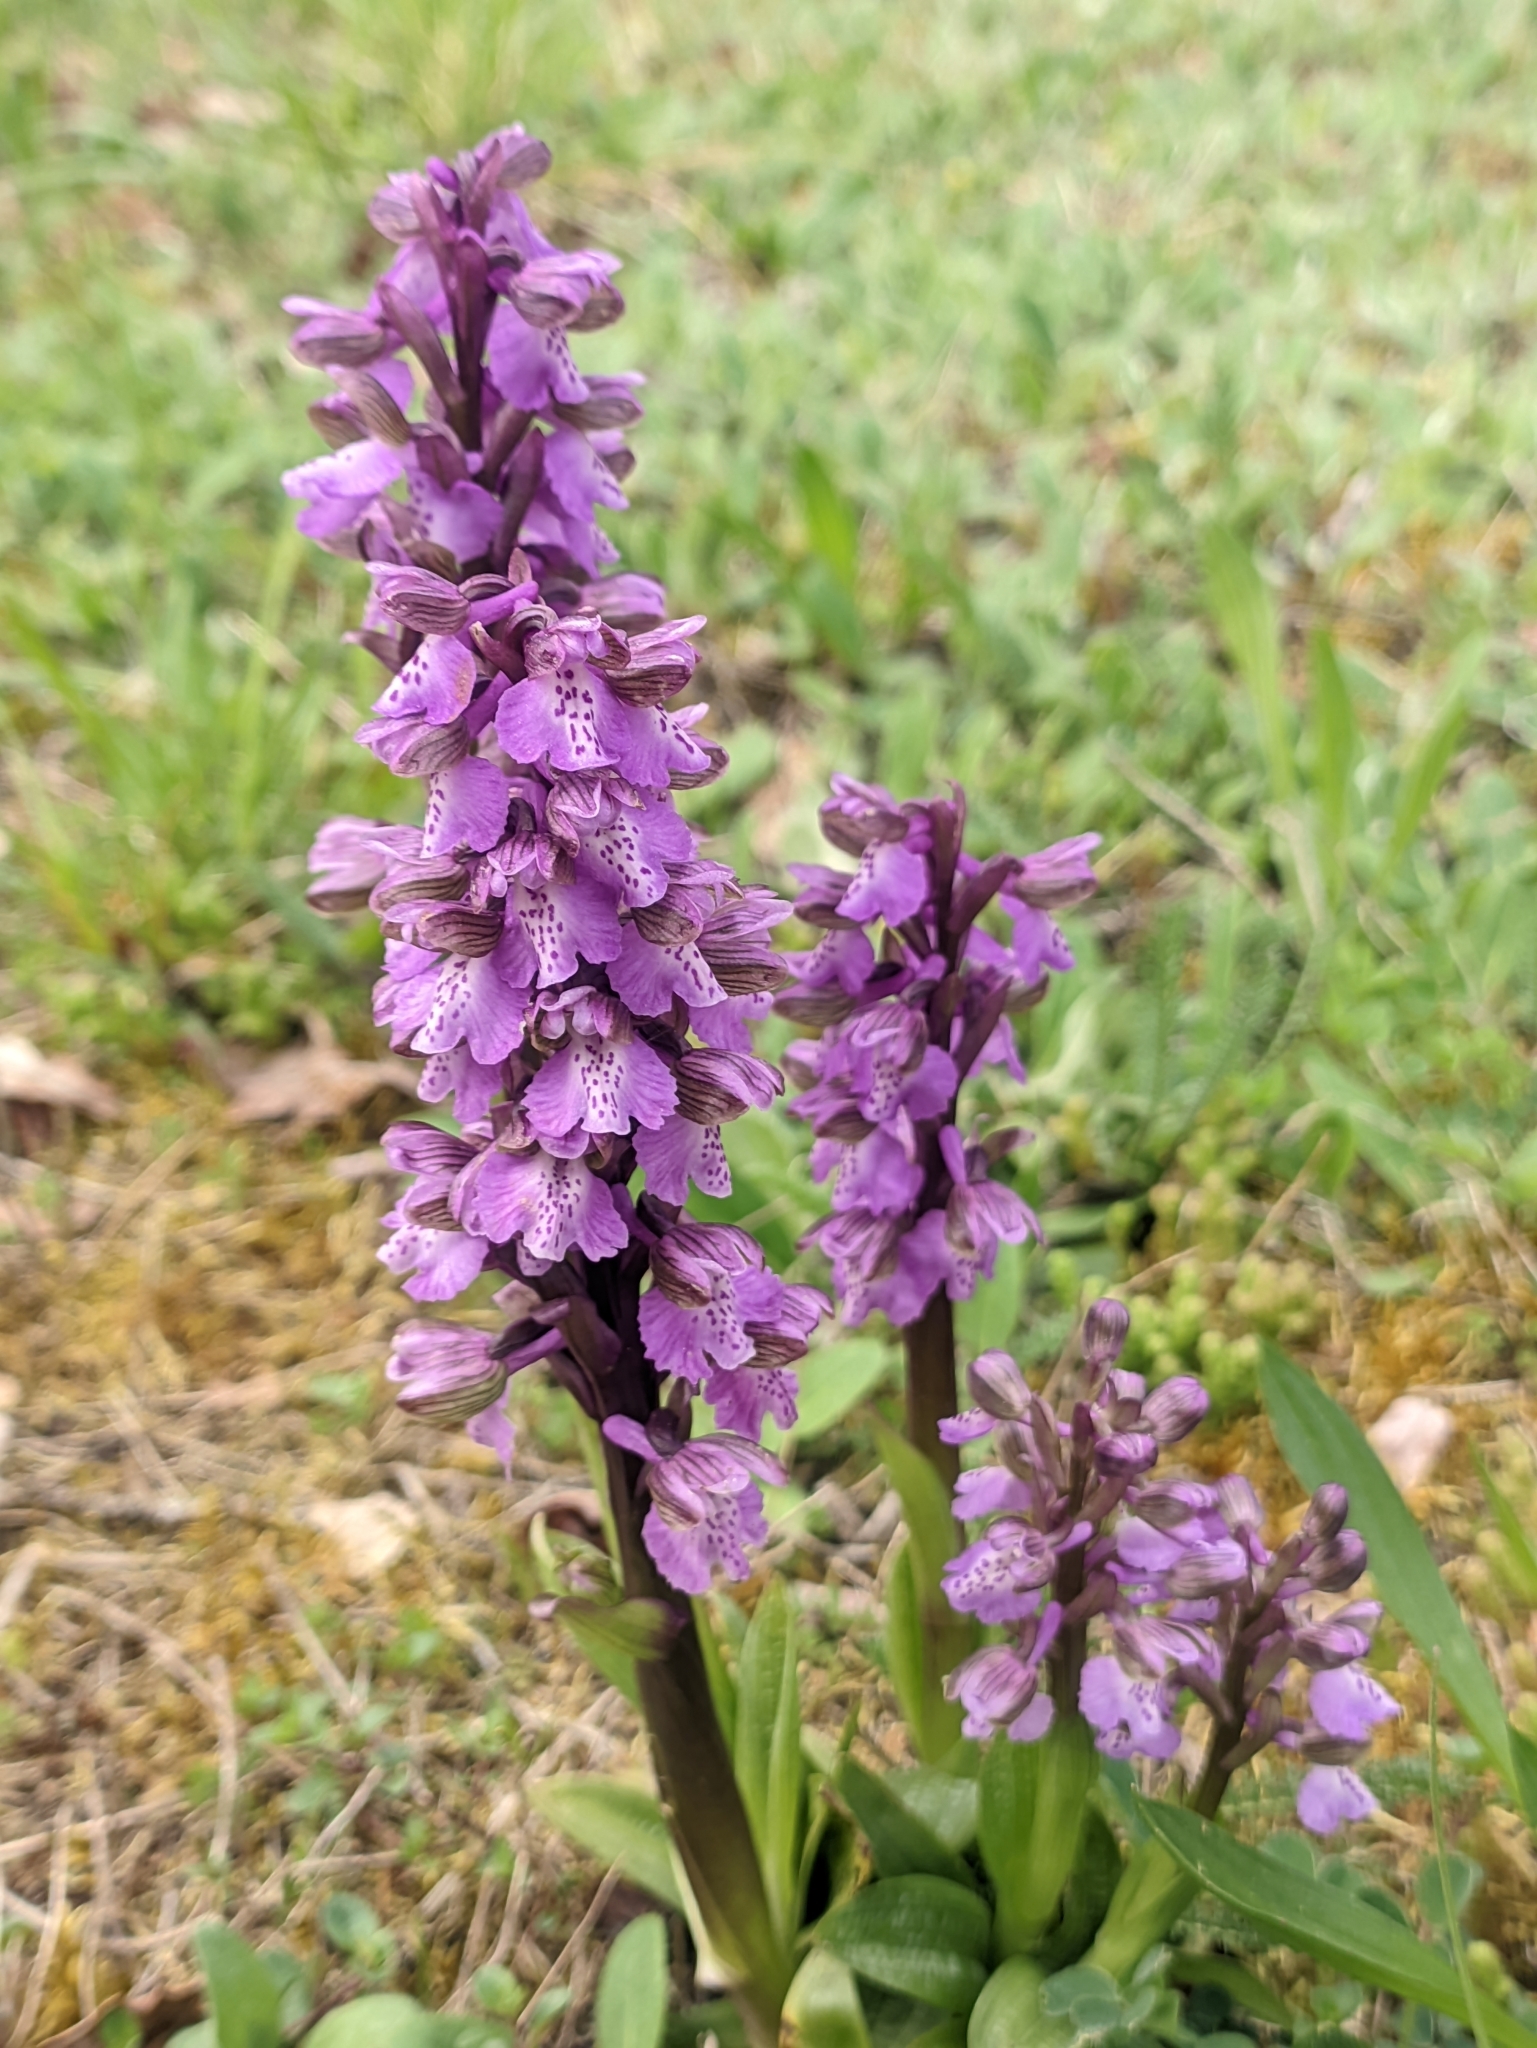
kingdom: Plantae
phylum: Tracheophyta
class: Liliopsida
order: Asparagales
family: Orchidaceae
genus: Anacamptis
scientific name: Anacamptis morio
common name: Green-winged orchid
